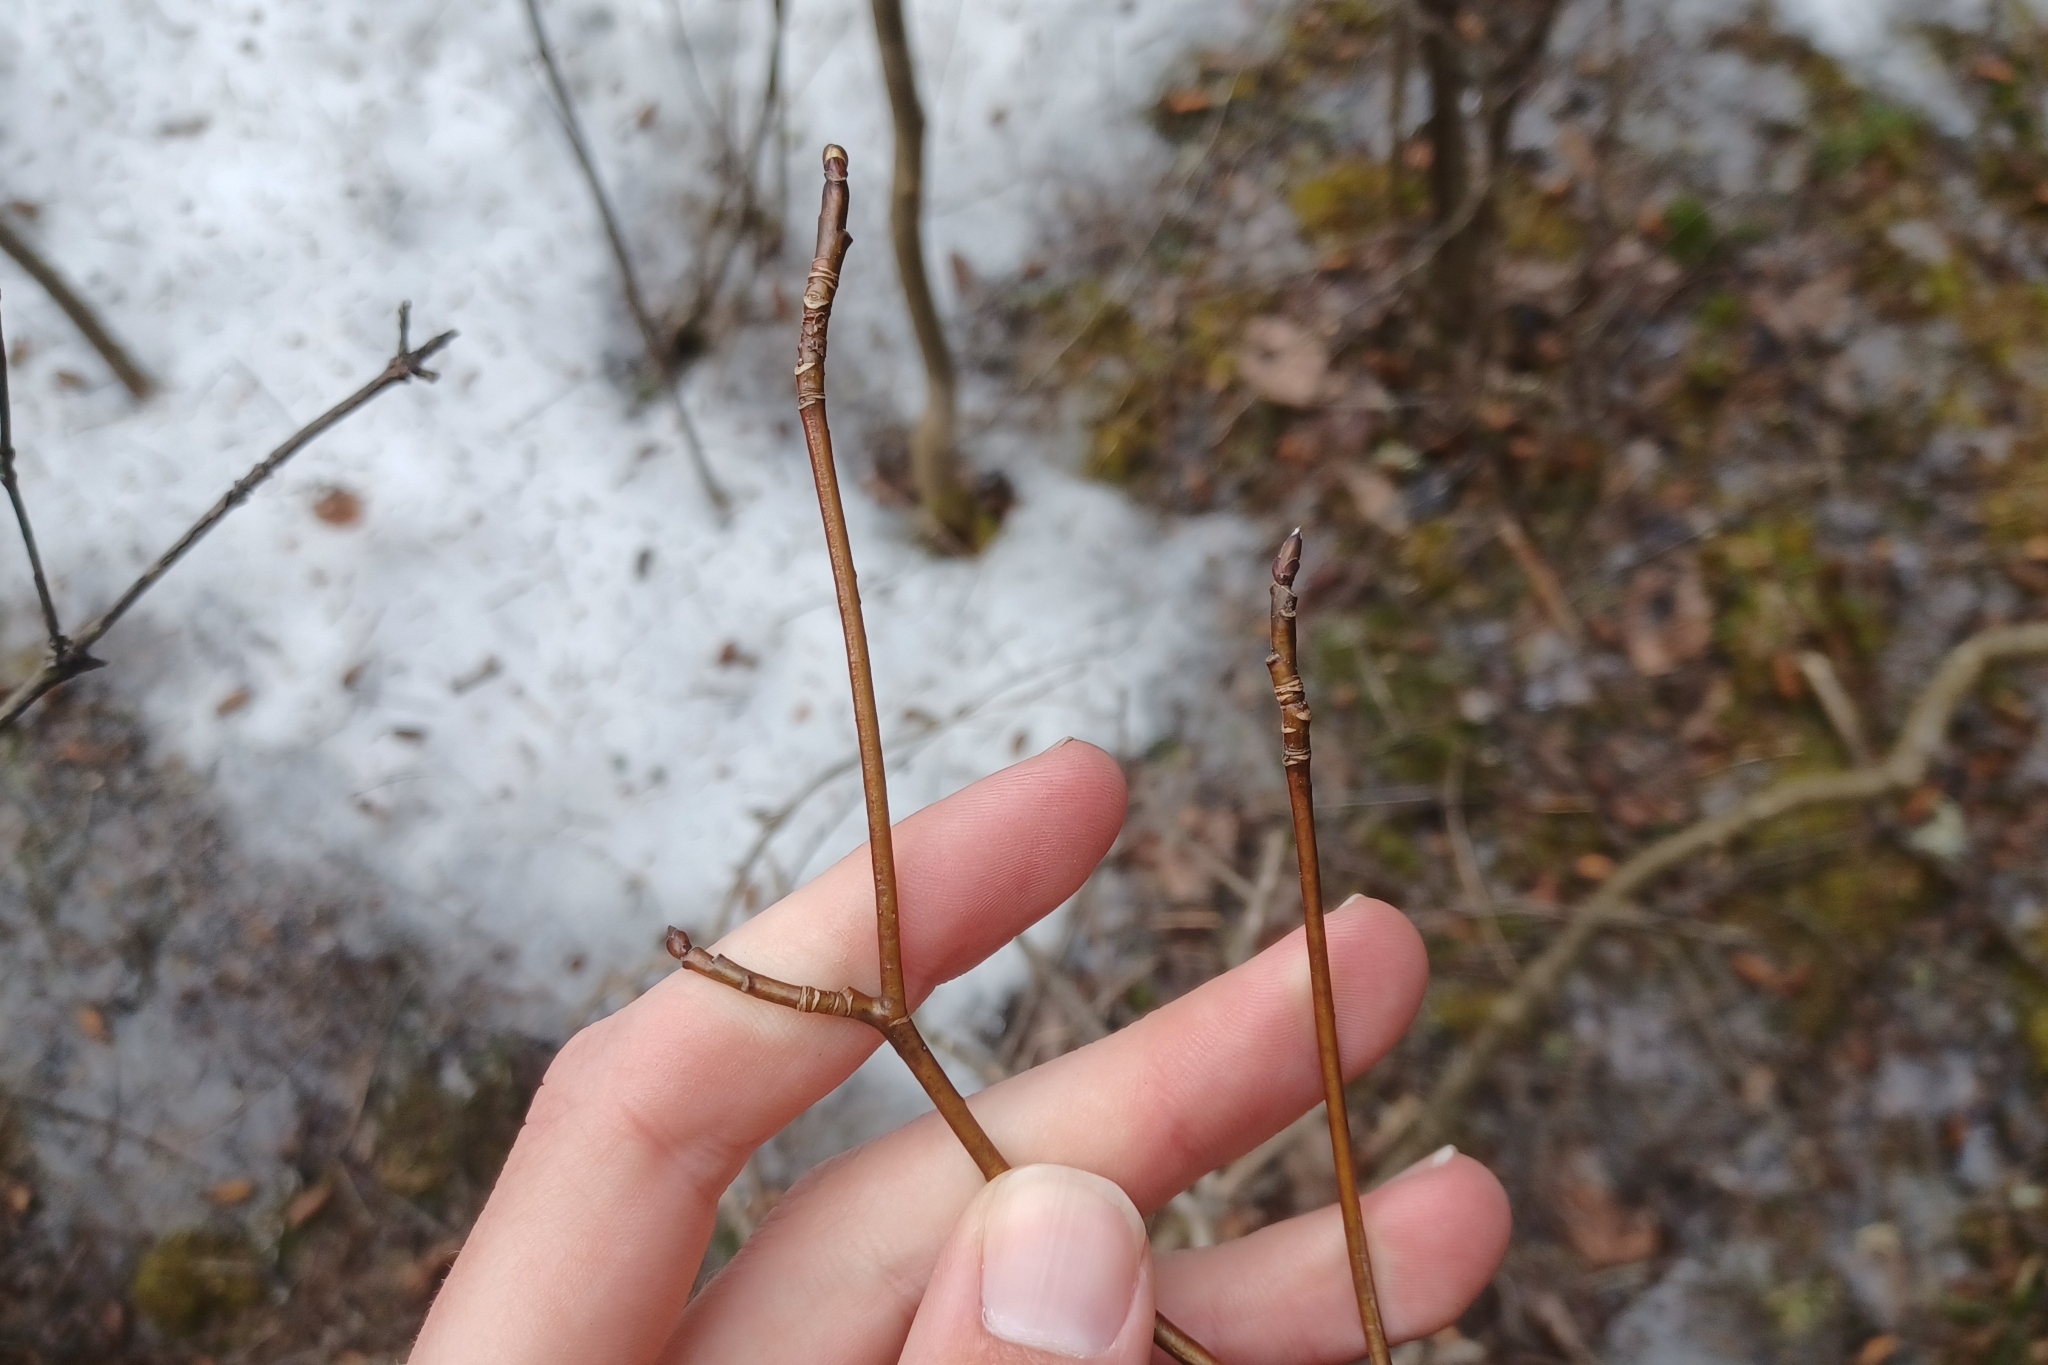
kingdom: Plantae
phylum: Tracheophyta
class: Magnoliopsida
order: Cornales
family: Cornaceae
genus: Cornus
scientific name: Cornus alternifolia
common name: Pagoda dogwood
